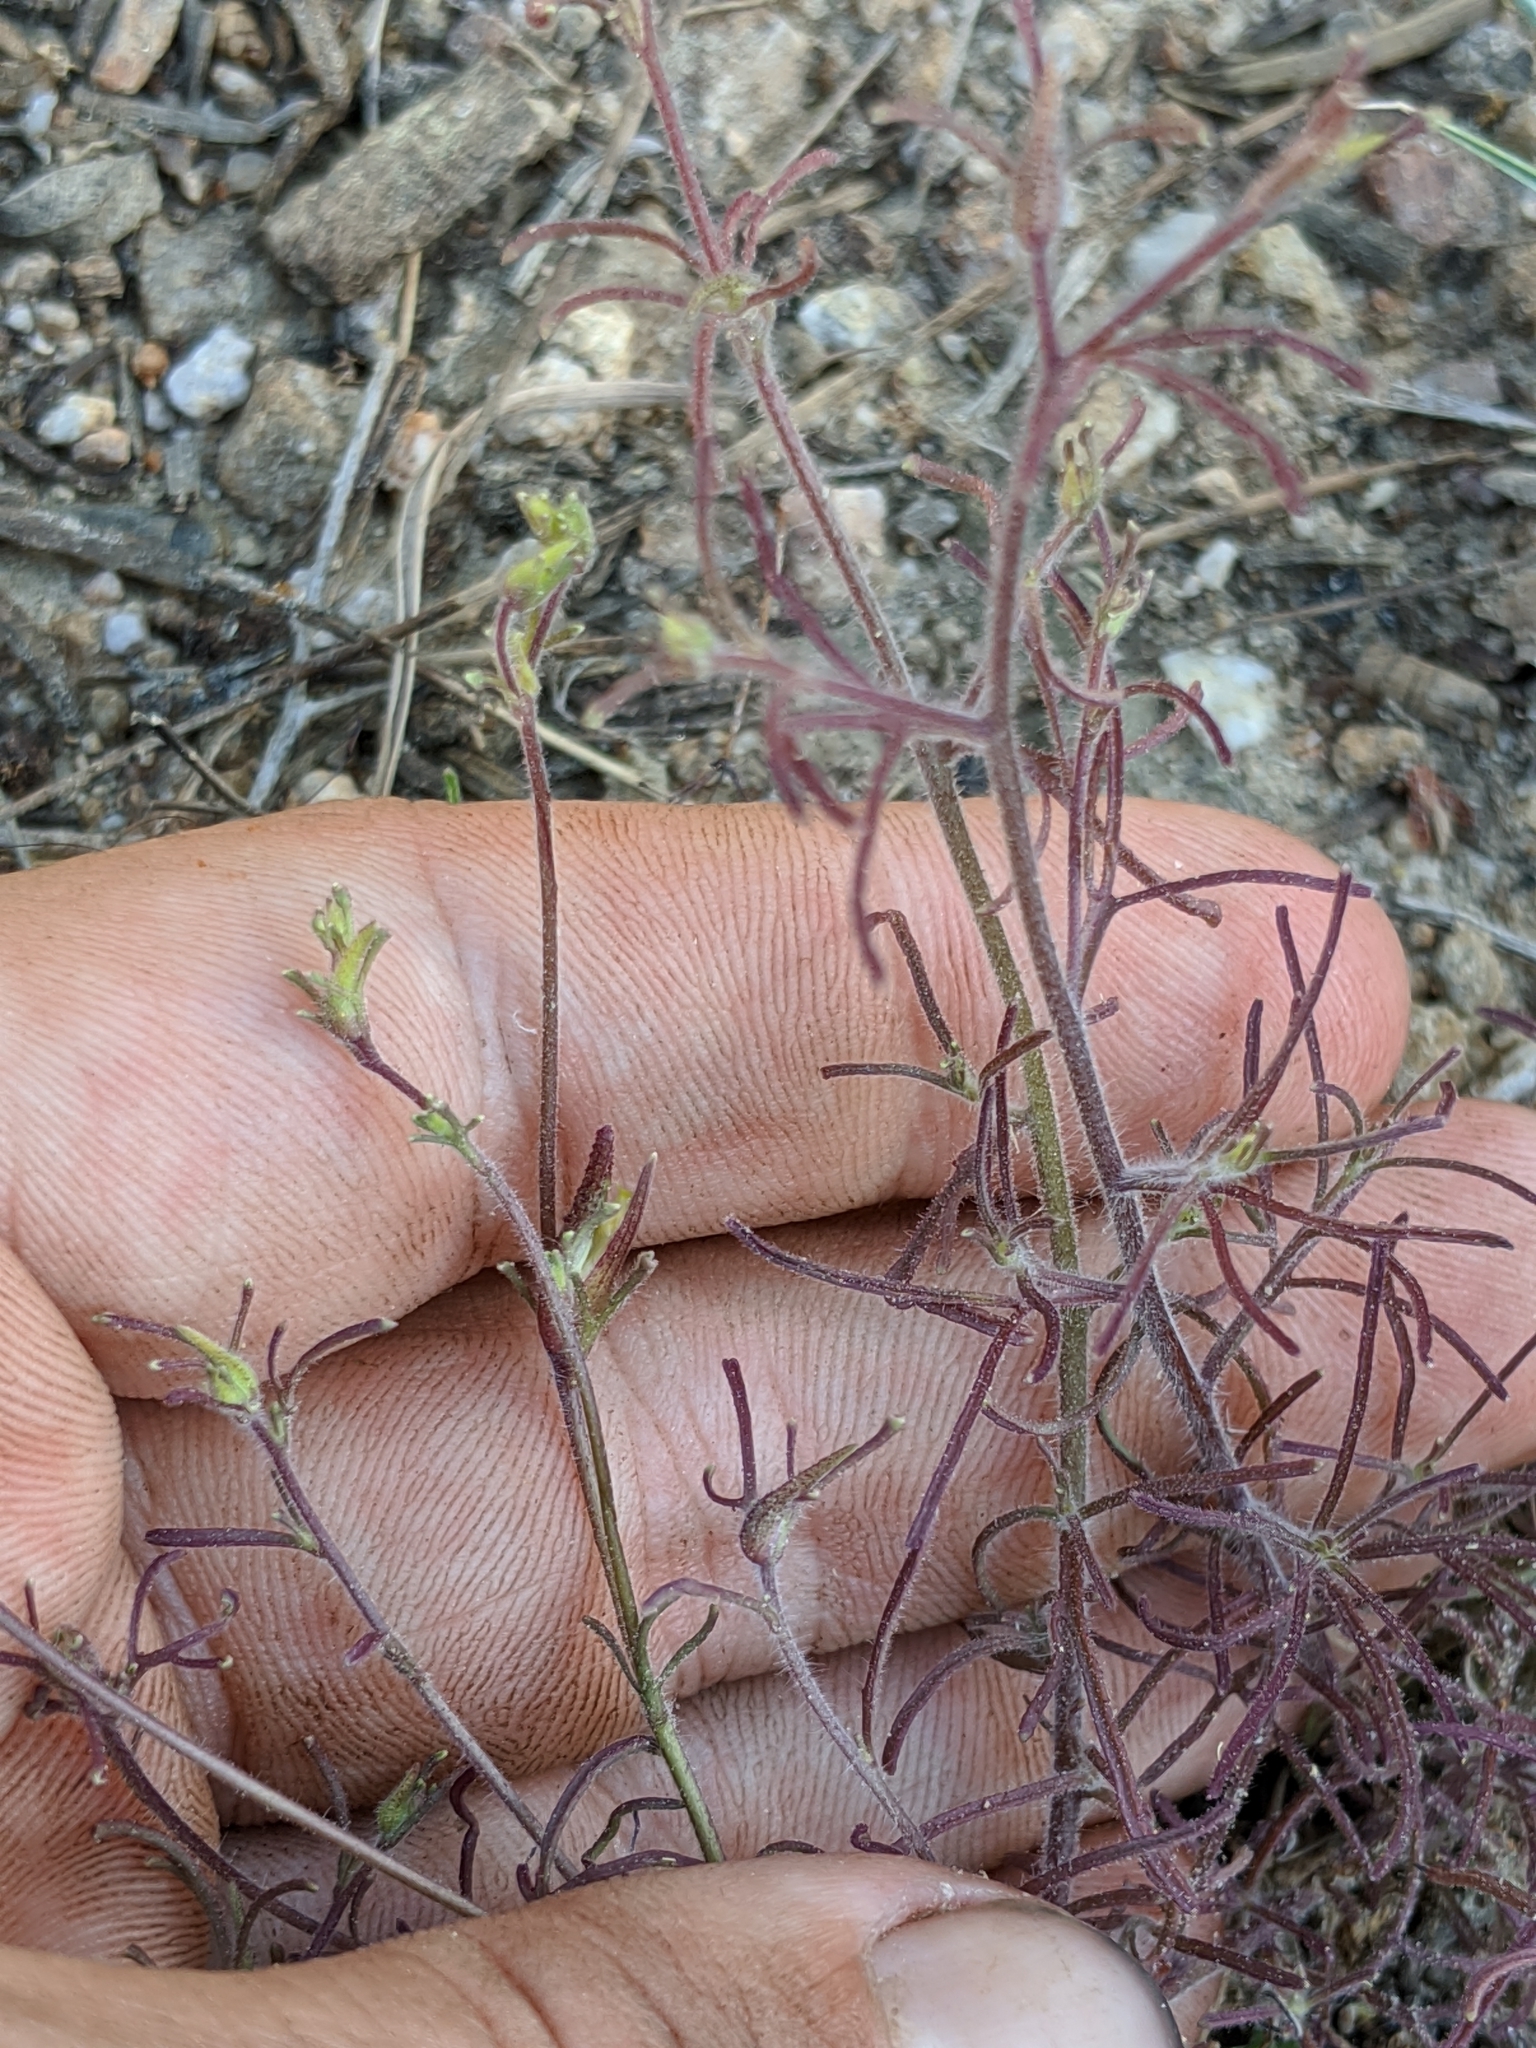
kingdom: Plantae
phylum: Tracheophyta
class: Magnoliopsida
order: Lamiales
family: Orobanchaceae
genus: Cordylanthus
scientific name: Cordylanthus nevinii
